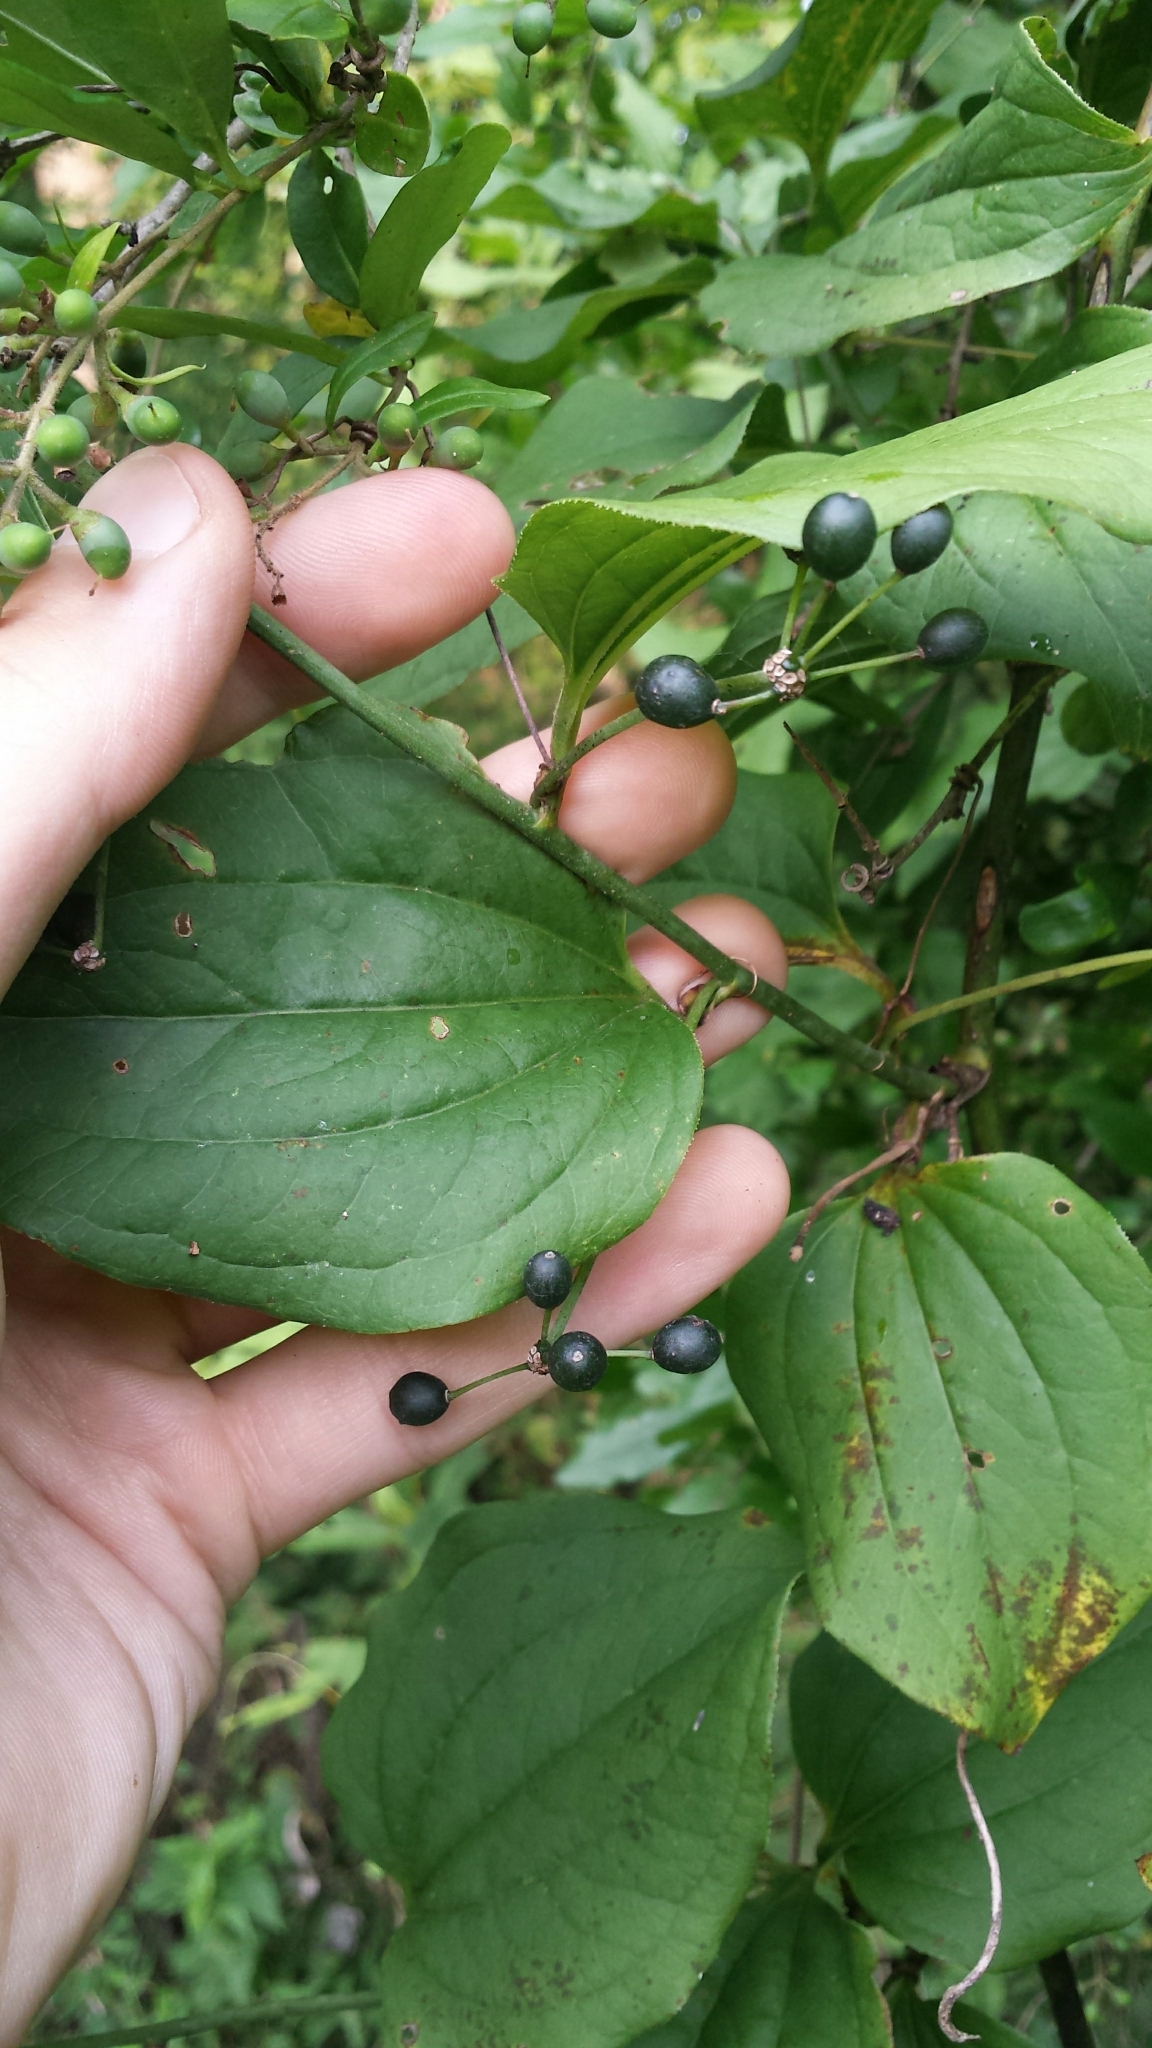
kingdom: Plantae
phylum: Tracheophyta
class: Liliopsida
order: Liliales
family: Smilacaceae
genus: Smilax
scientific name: Smilax tamnoides
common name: Hellfetter
